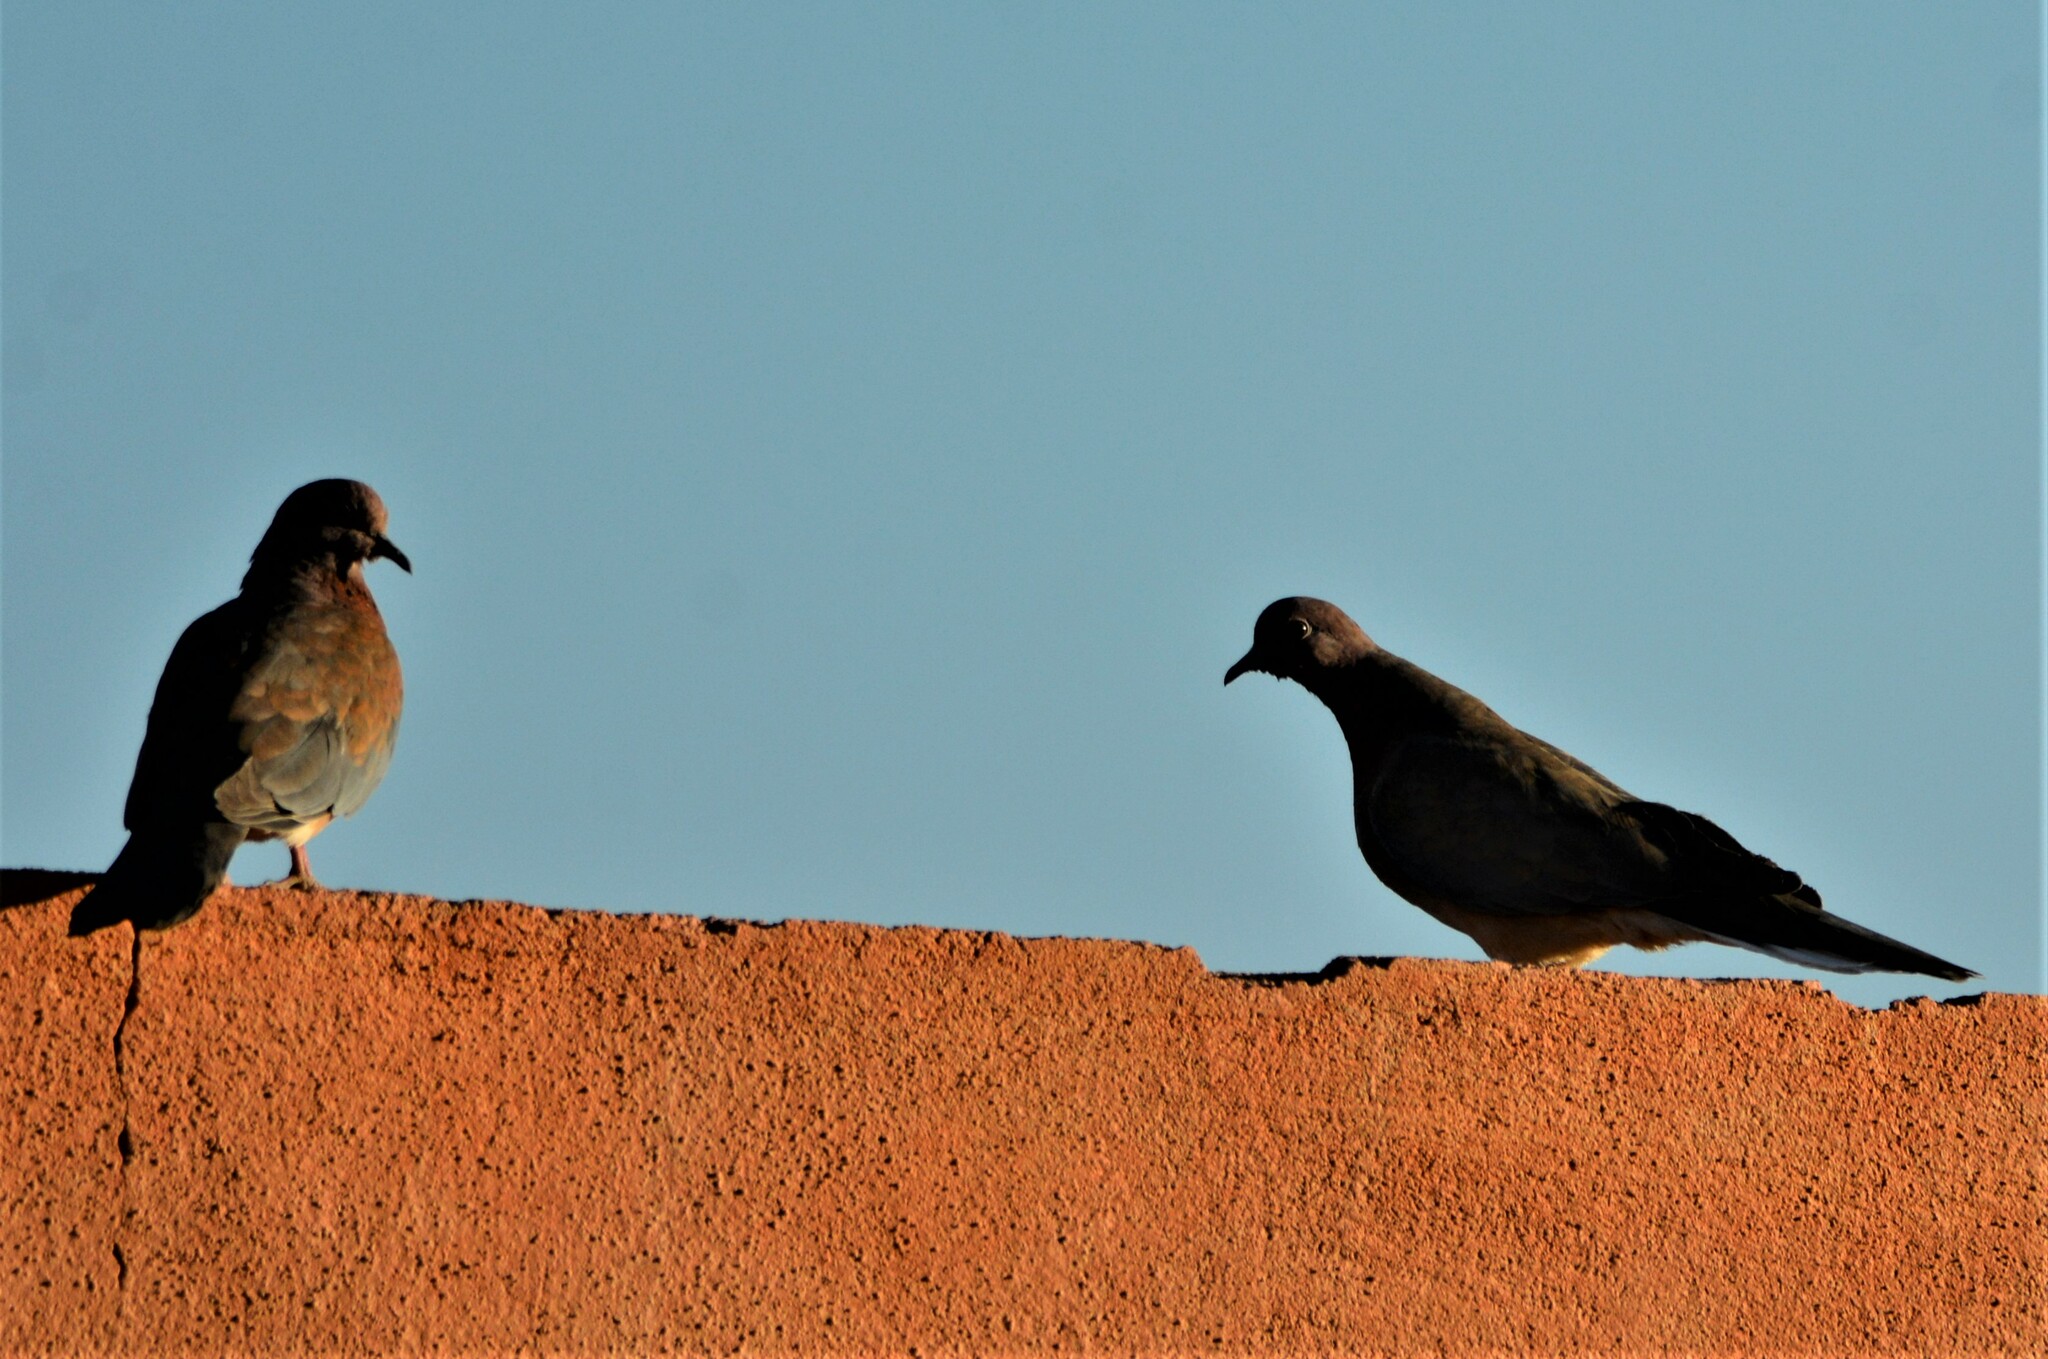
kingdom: Animalia
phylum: Chordata
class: Aves
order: Columbiformes
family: Columbidae
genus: Spilopelia
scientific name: Spilopelia senegalensis
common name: Laughing dove
